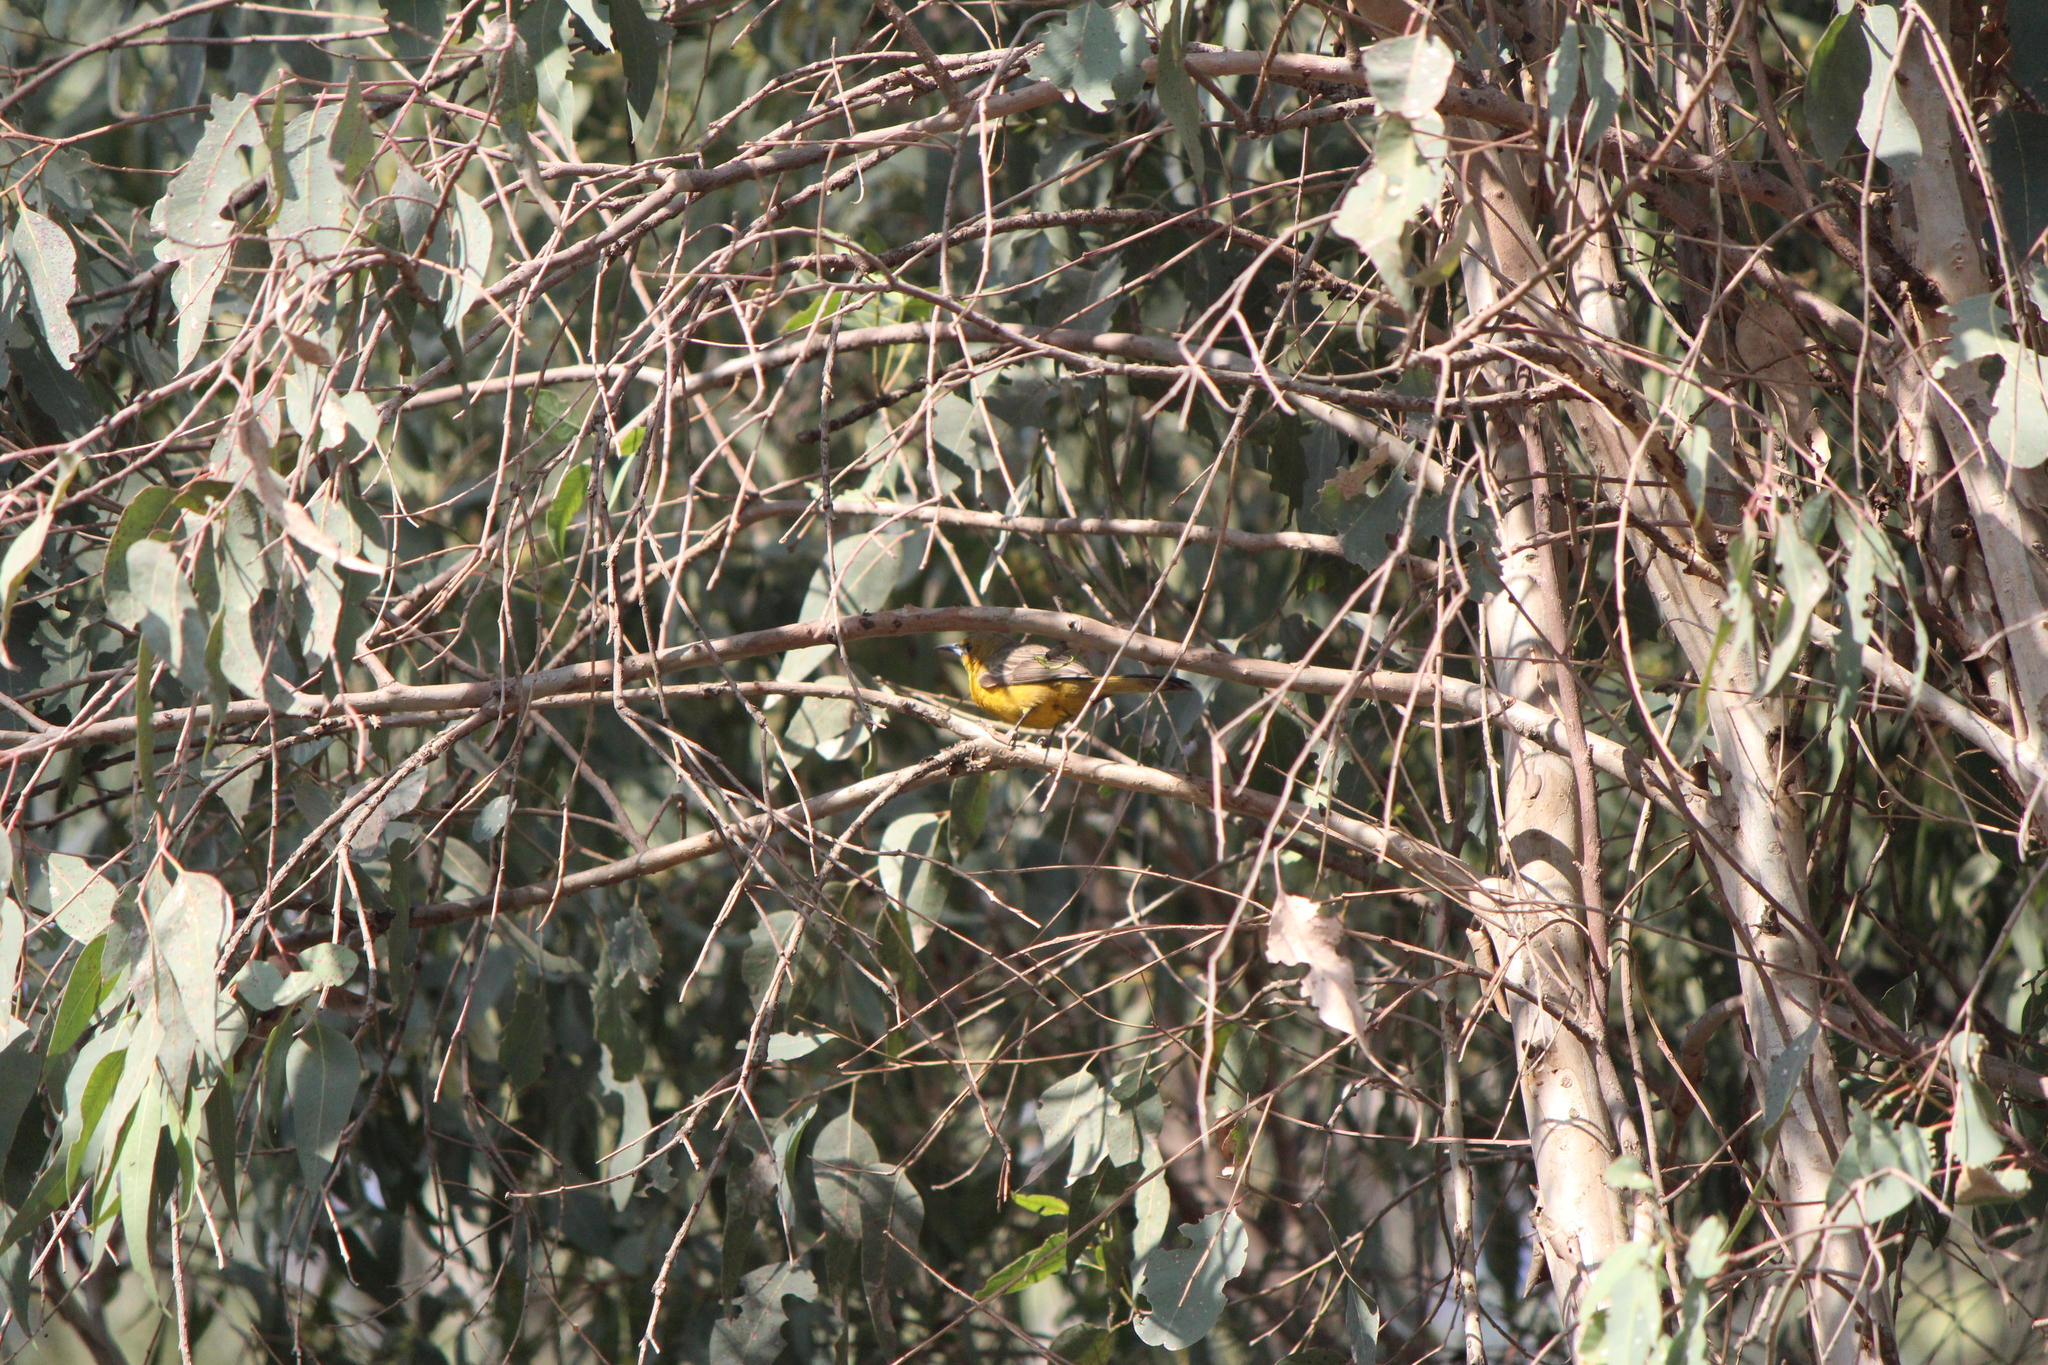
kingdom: Animalia
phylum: Chordata
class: Aves
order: Passeriformes
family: Icteridae
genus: Icterus
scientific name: Icterus cucullatus
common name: Hooded oriole
